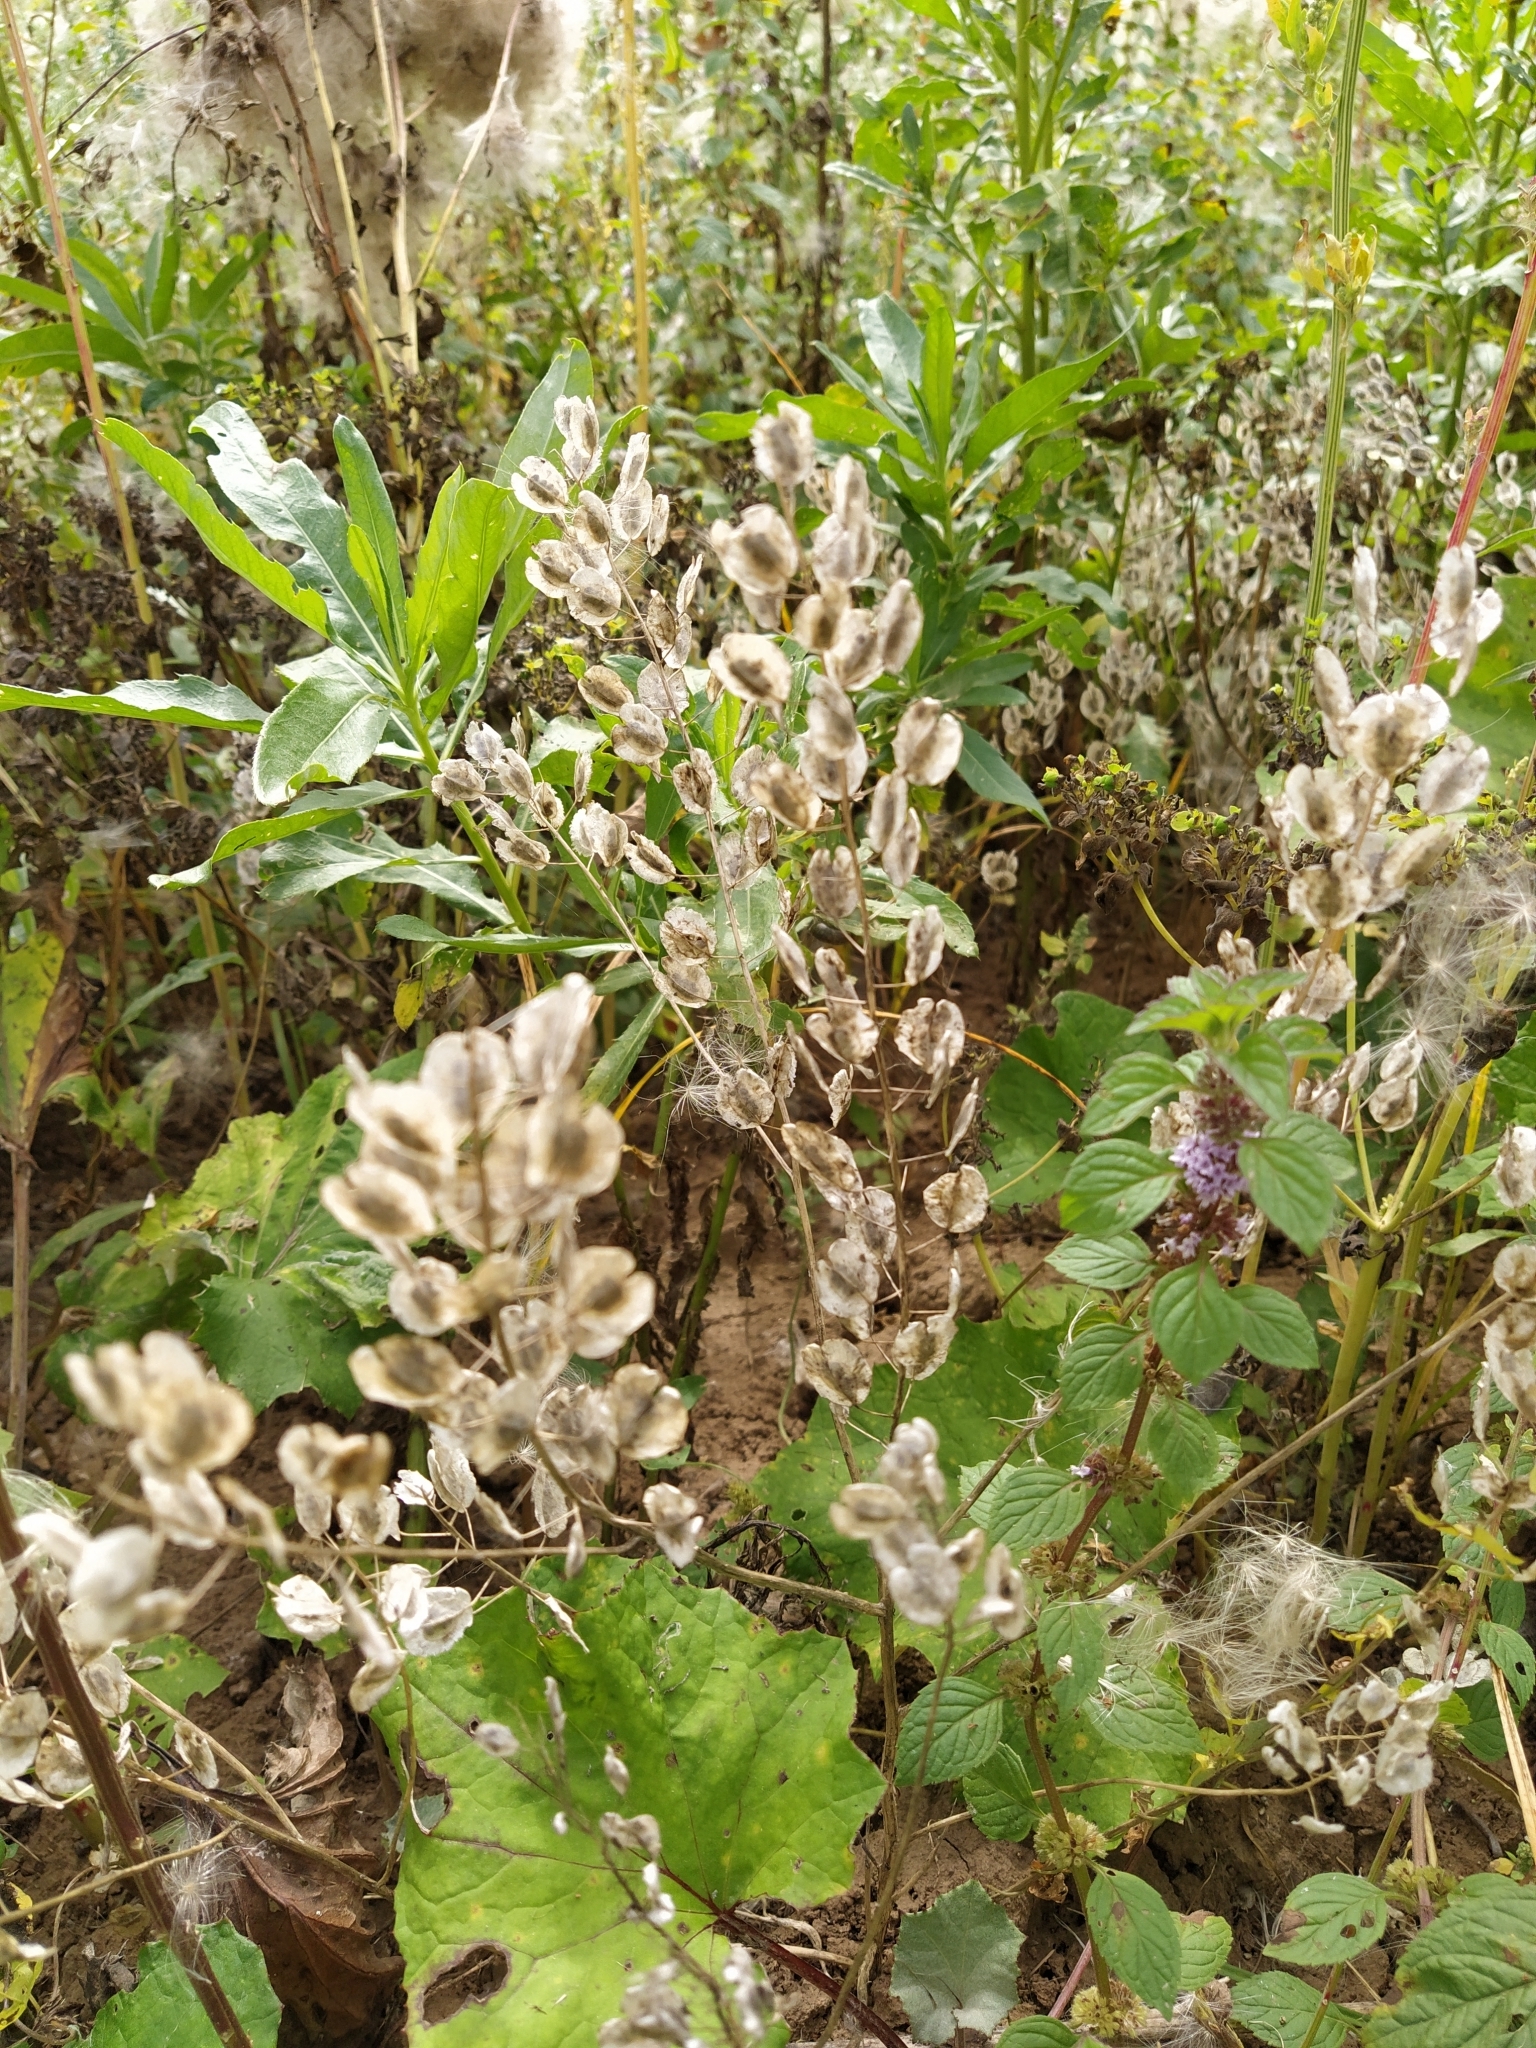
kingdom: Plantae
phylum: Tracheophyta
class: Magnoliopsida
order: Brassicales
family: Brassicaceae
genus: Thlaspi
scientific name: Thlaspi arvense
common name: Field pennycress
